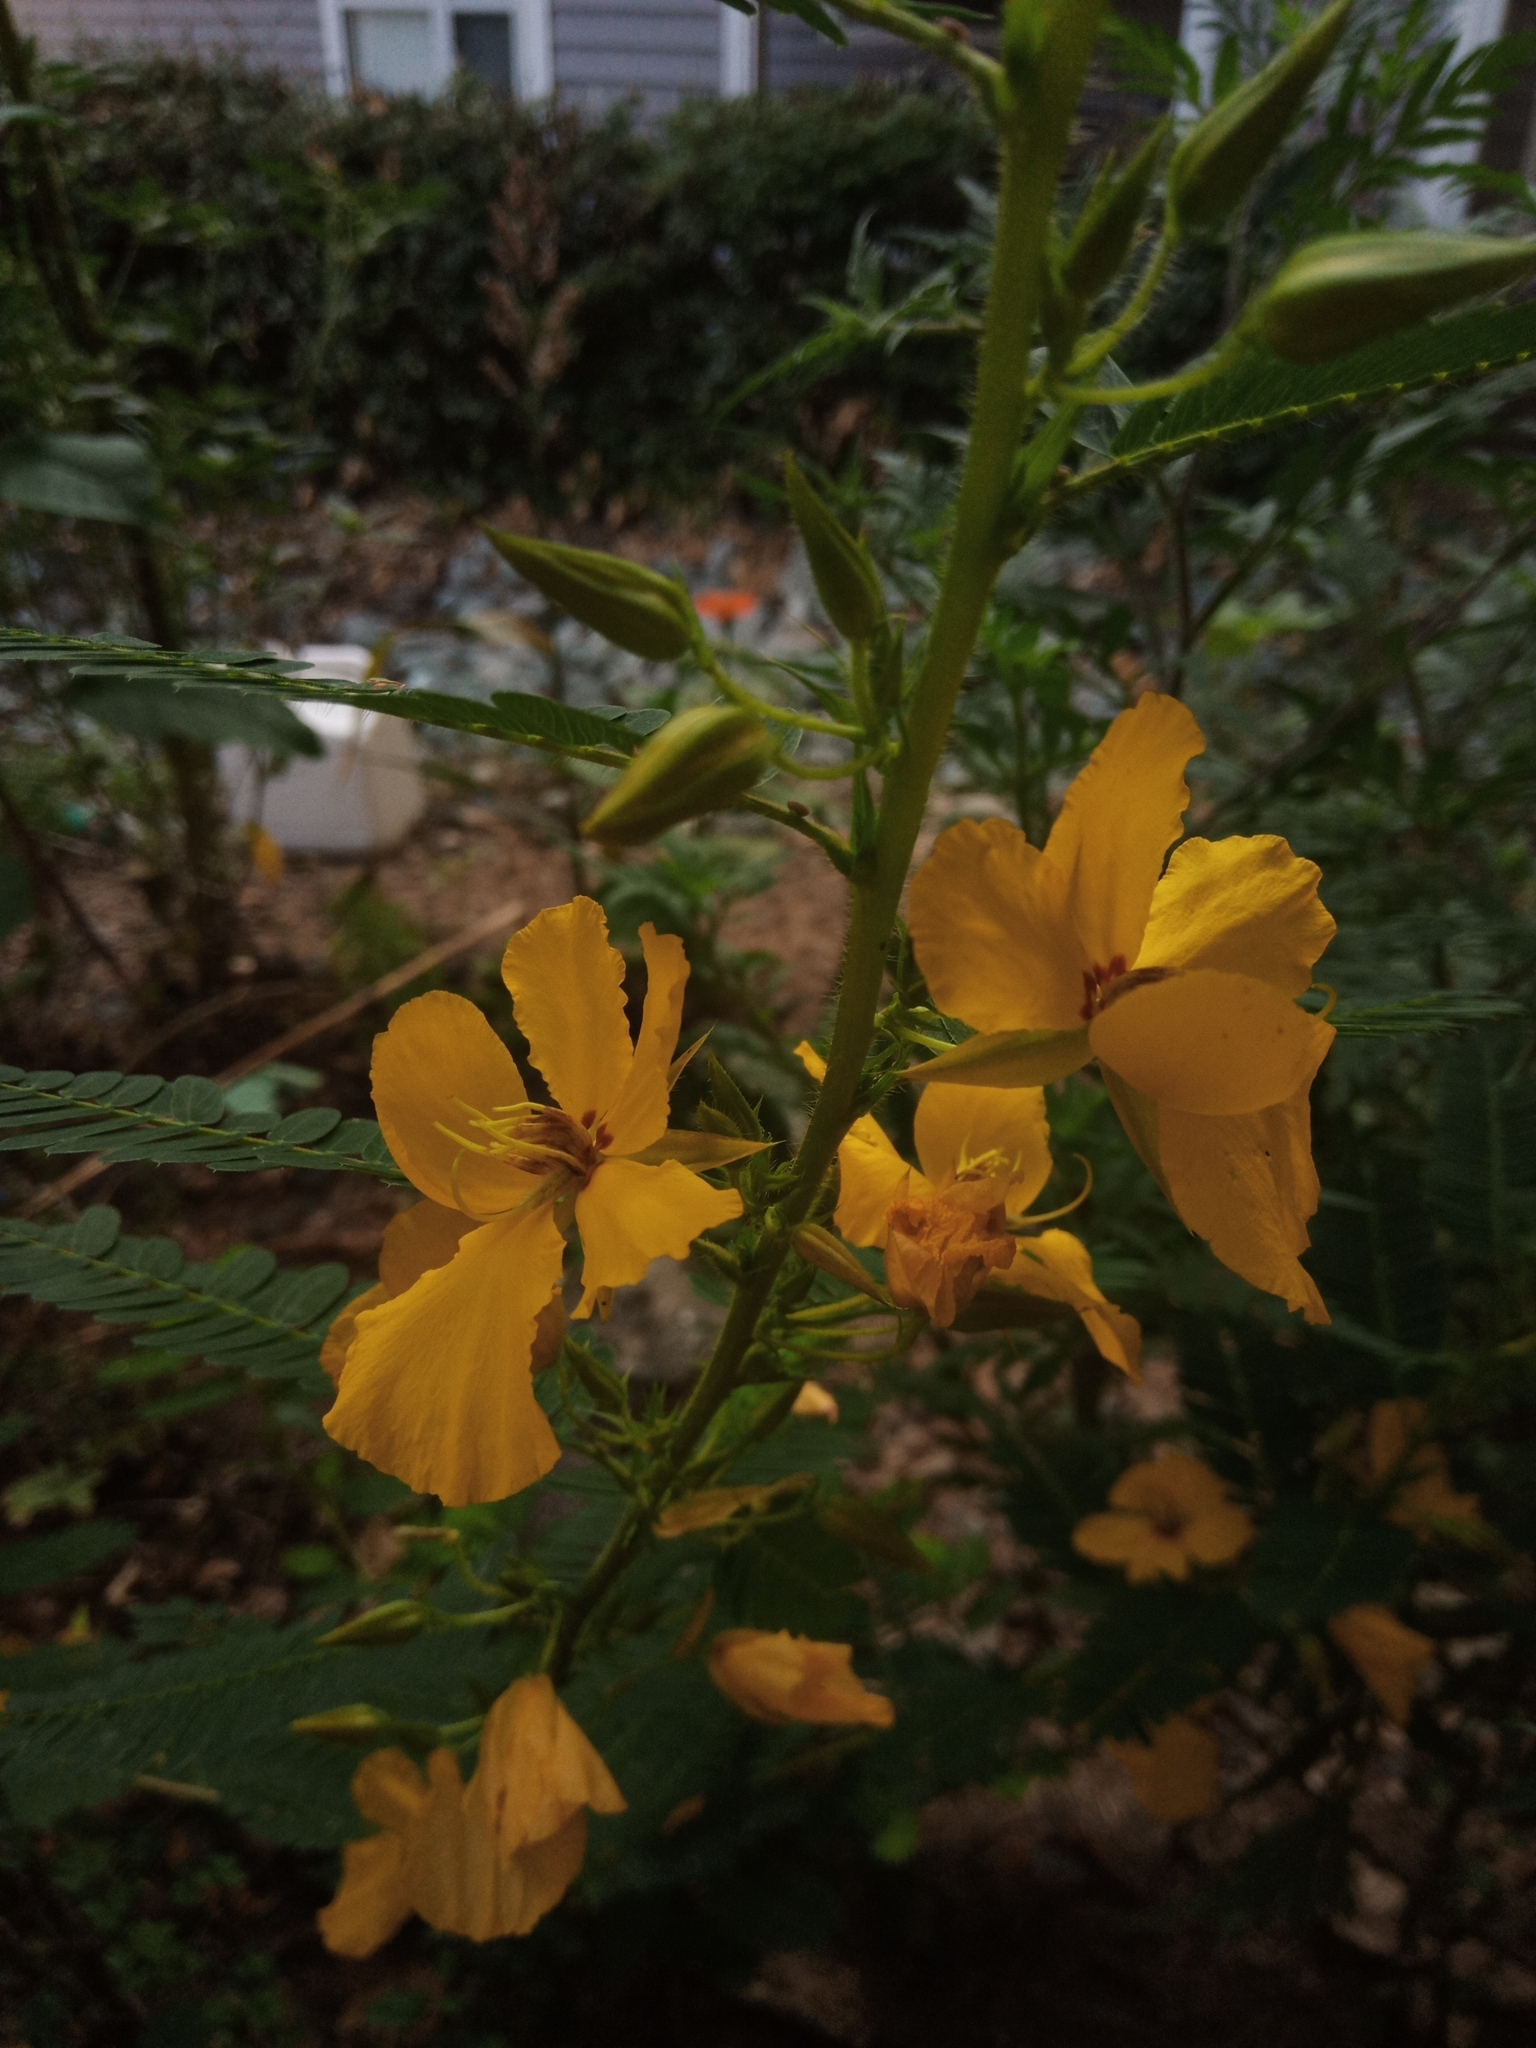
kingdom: Plantae
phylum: Tracheophyta
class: Magnoliopsida
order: Fabales
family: Fabaceae
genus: Chamaecrista
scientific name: Chamaecrista fasciculata
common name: Golden cassia
